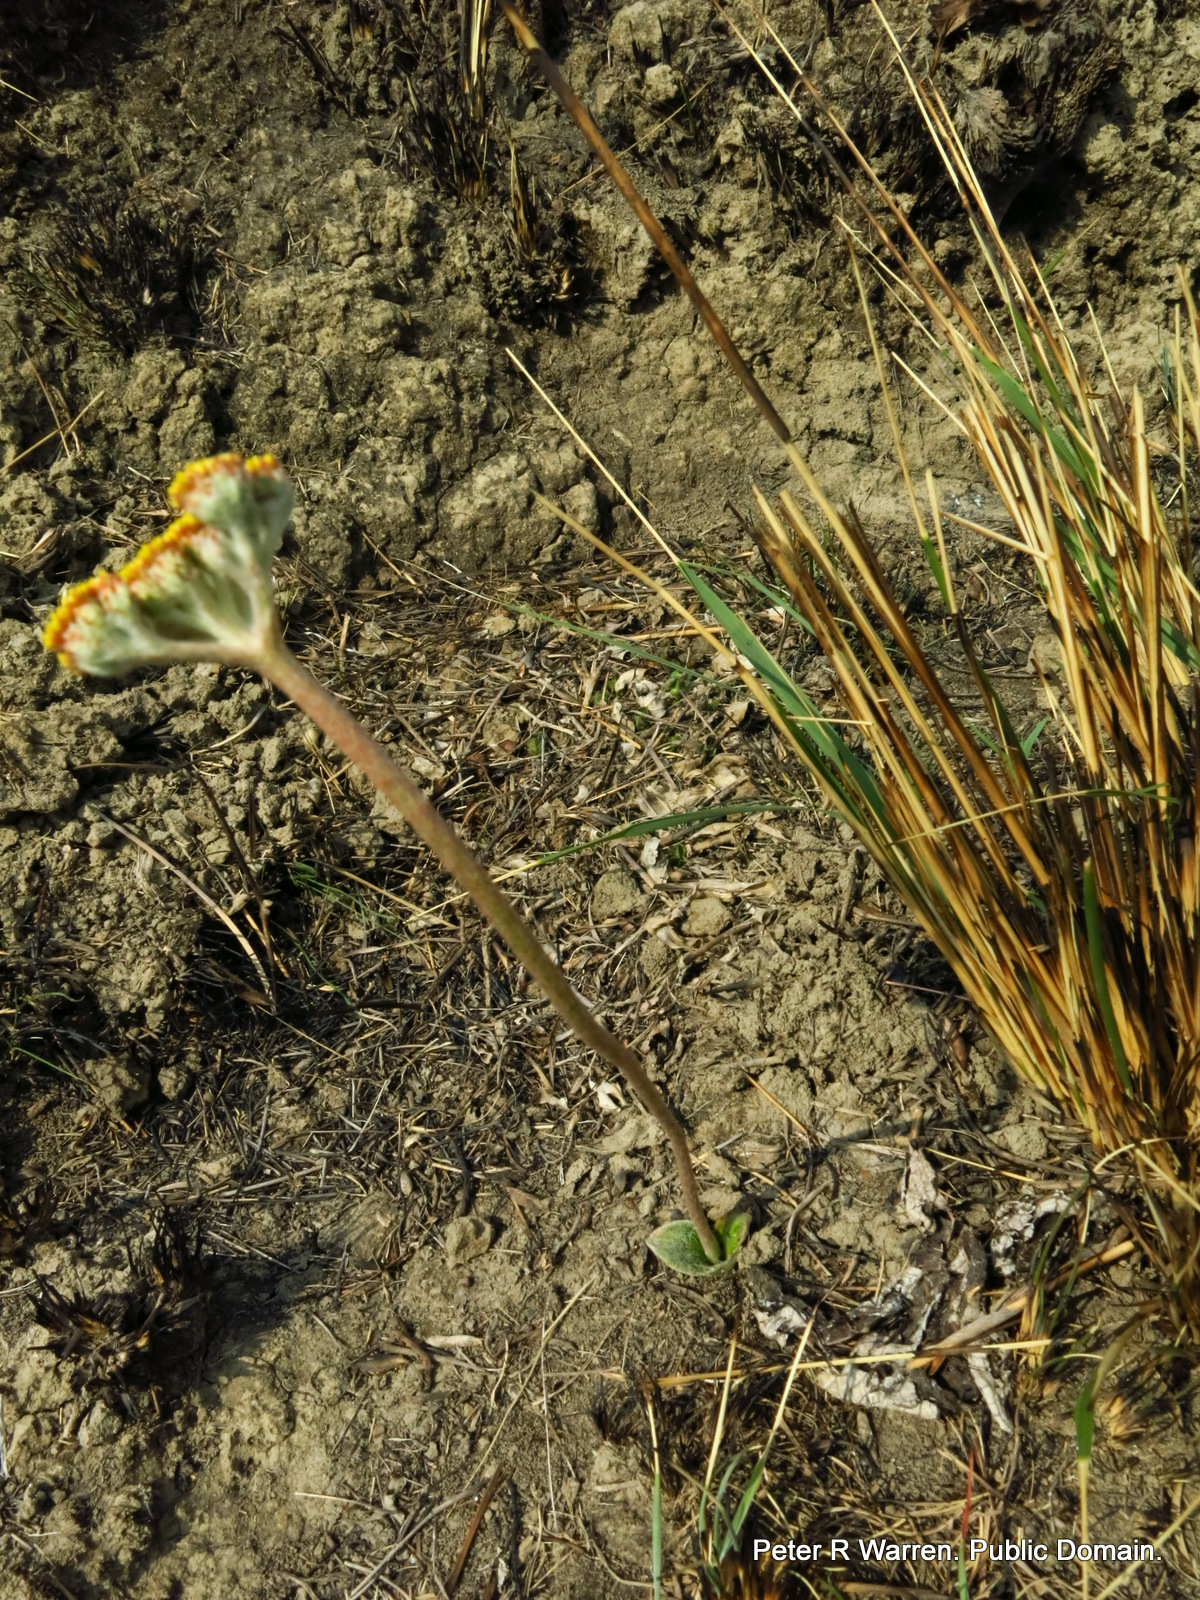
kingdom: Plantae
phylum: Tracheophyta
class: Magnoliopsida
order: Asterales
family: Asteraceae
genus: Helichrysum
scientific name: Helichrysum nudifolium
